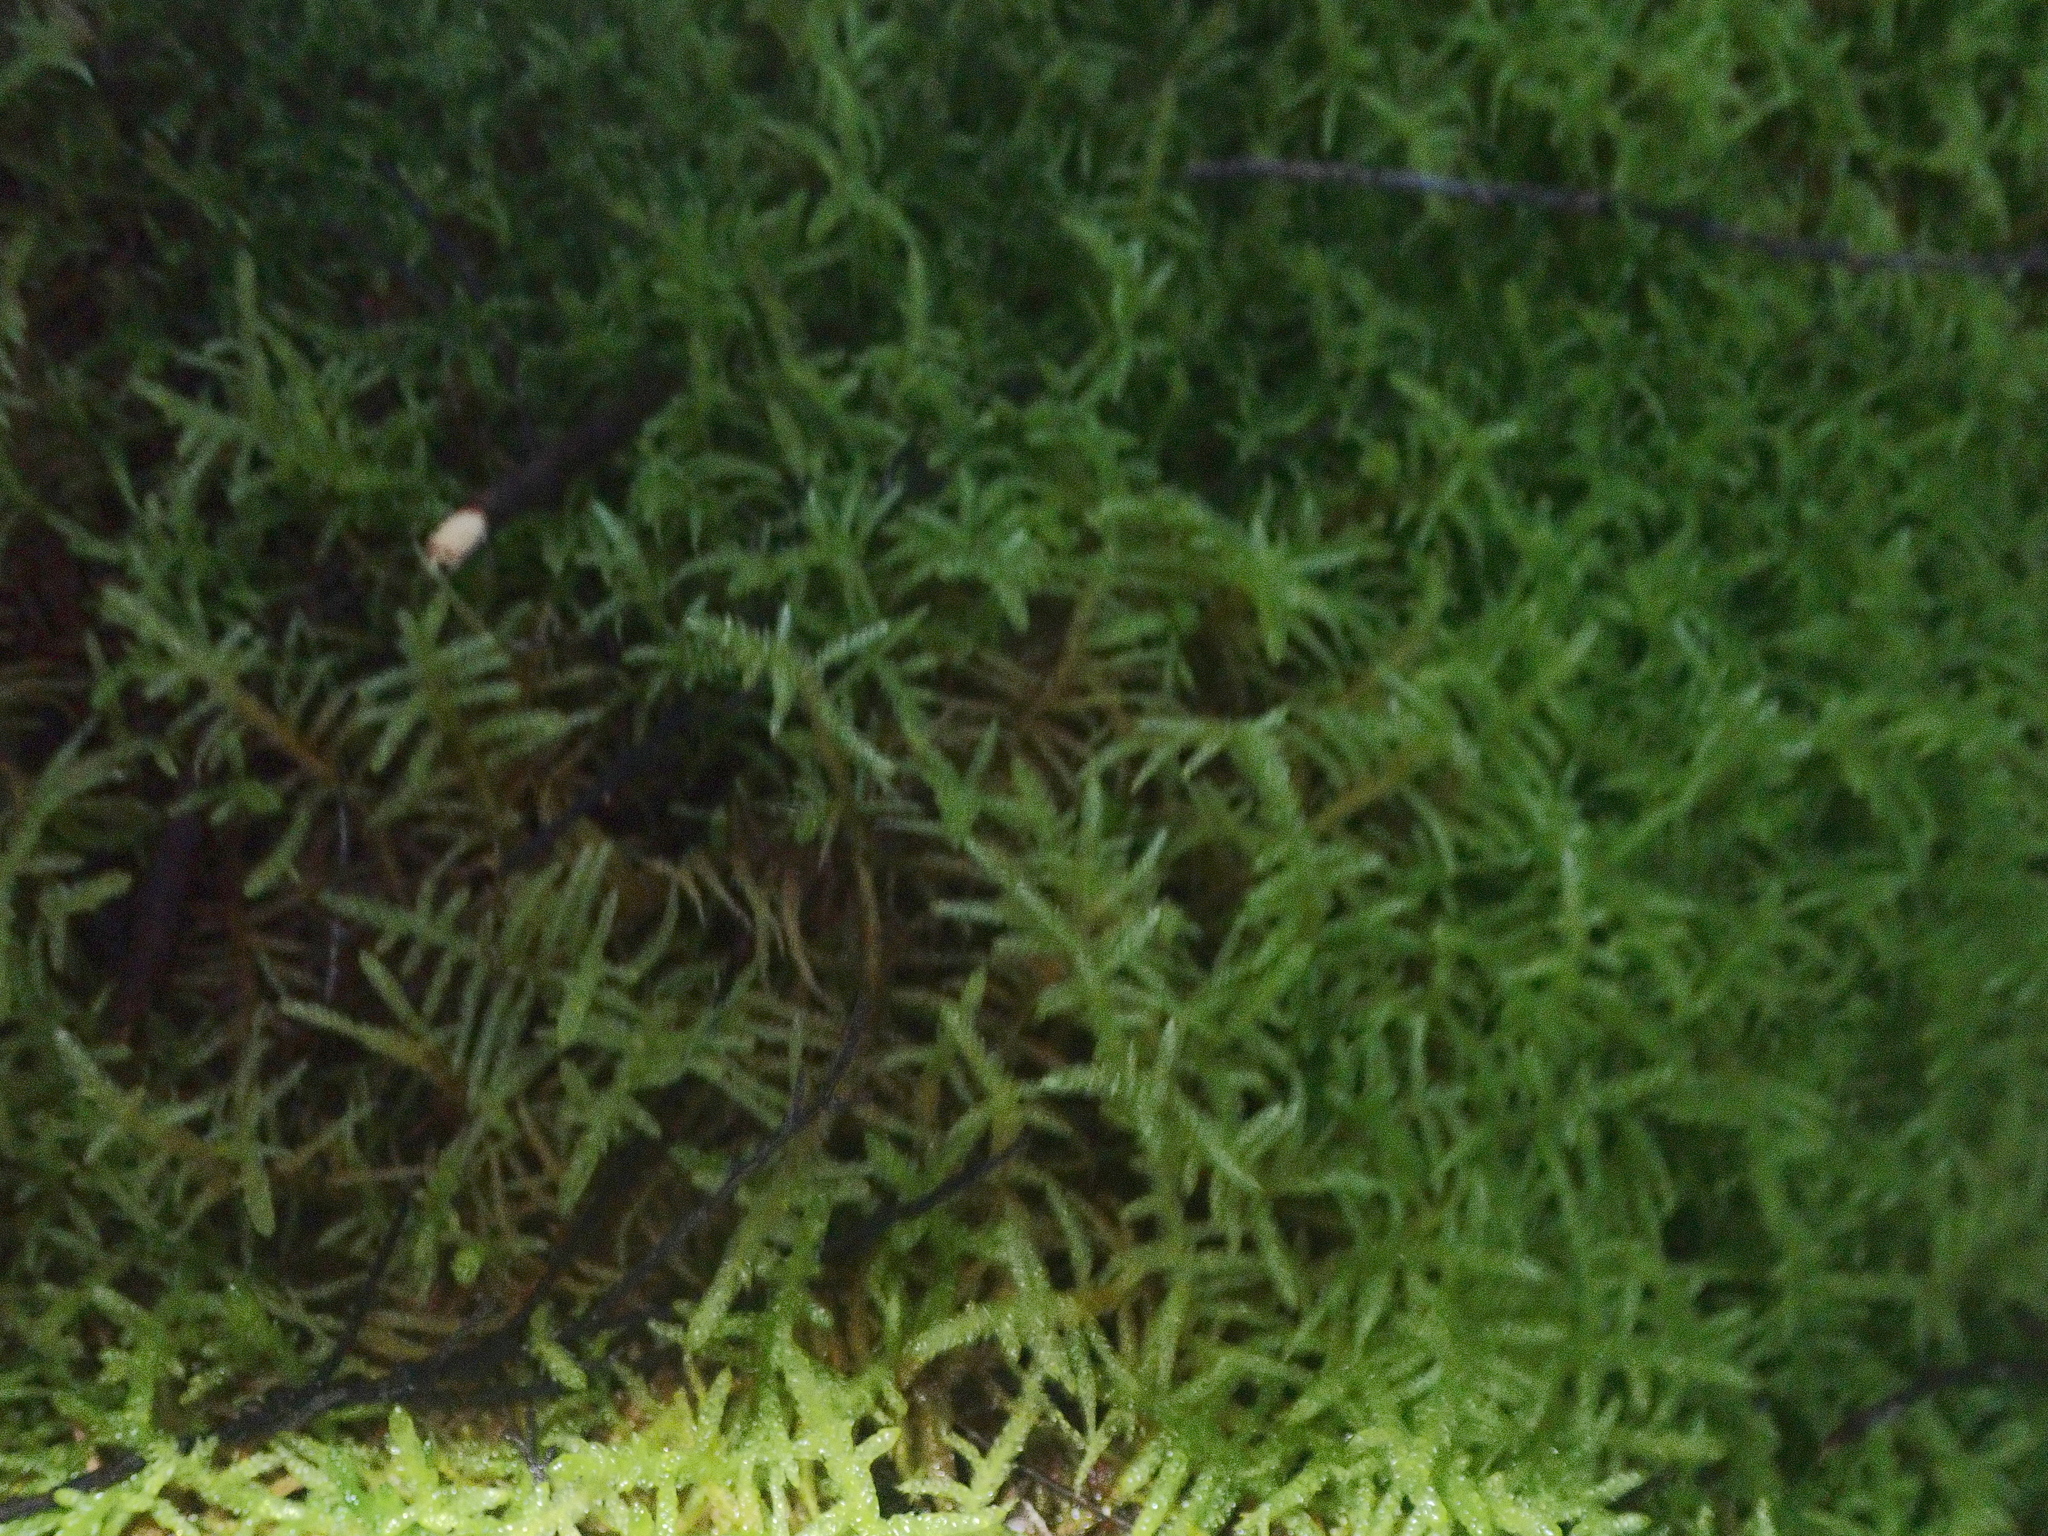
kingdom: Plantae
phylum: Bryophyta
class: Bryopsida
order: Hypnales
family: Brachytheciaceae
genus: Pseudoscleropodium
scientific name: Pseudoscleropodium purum
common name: Neat feather-moss
